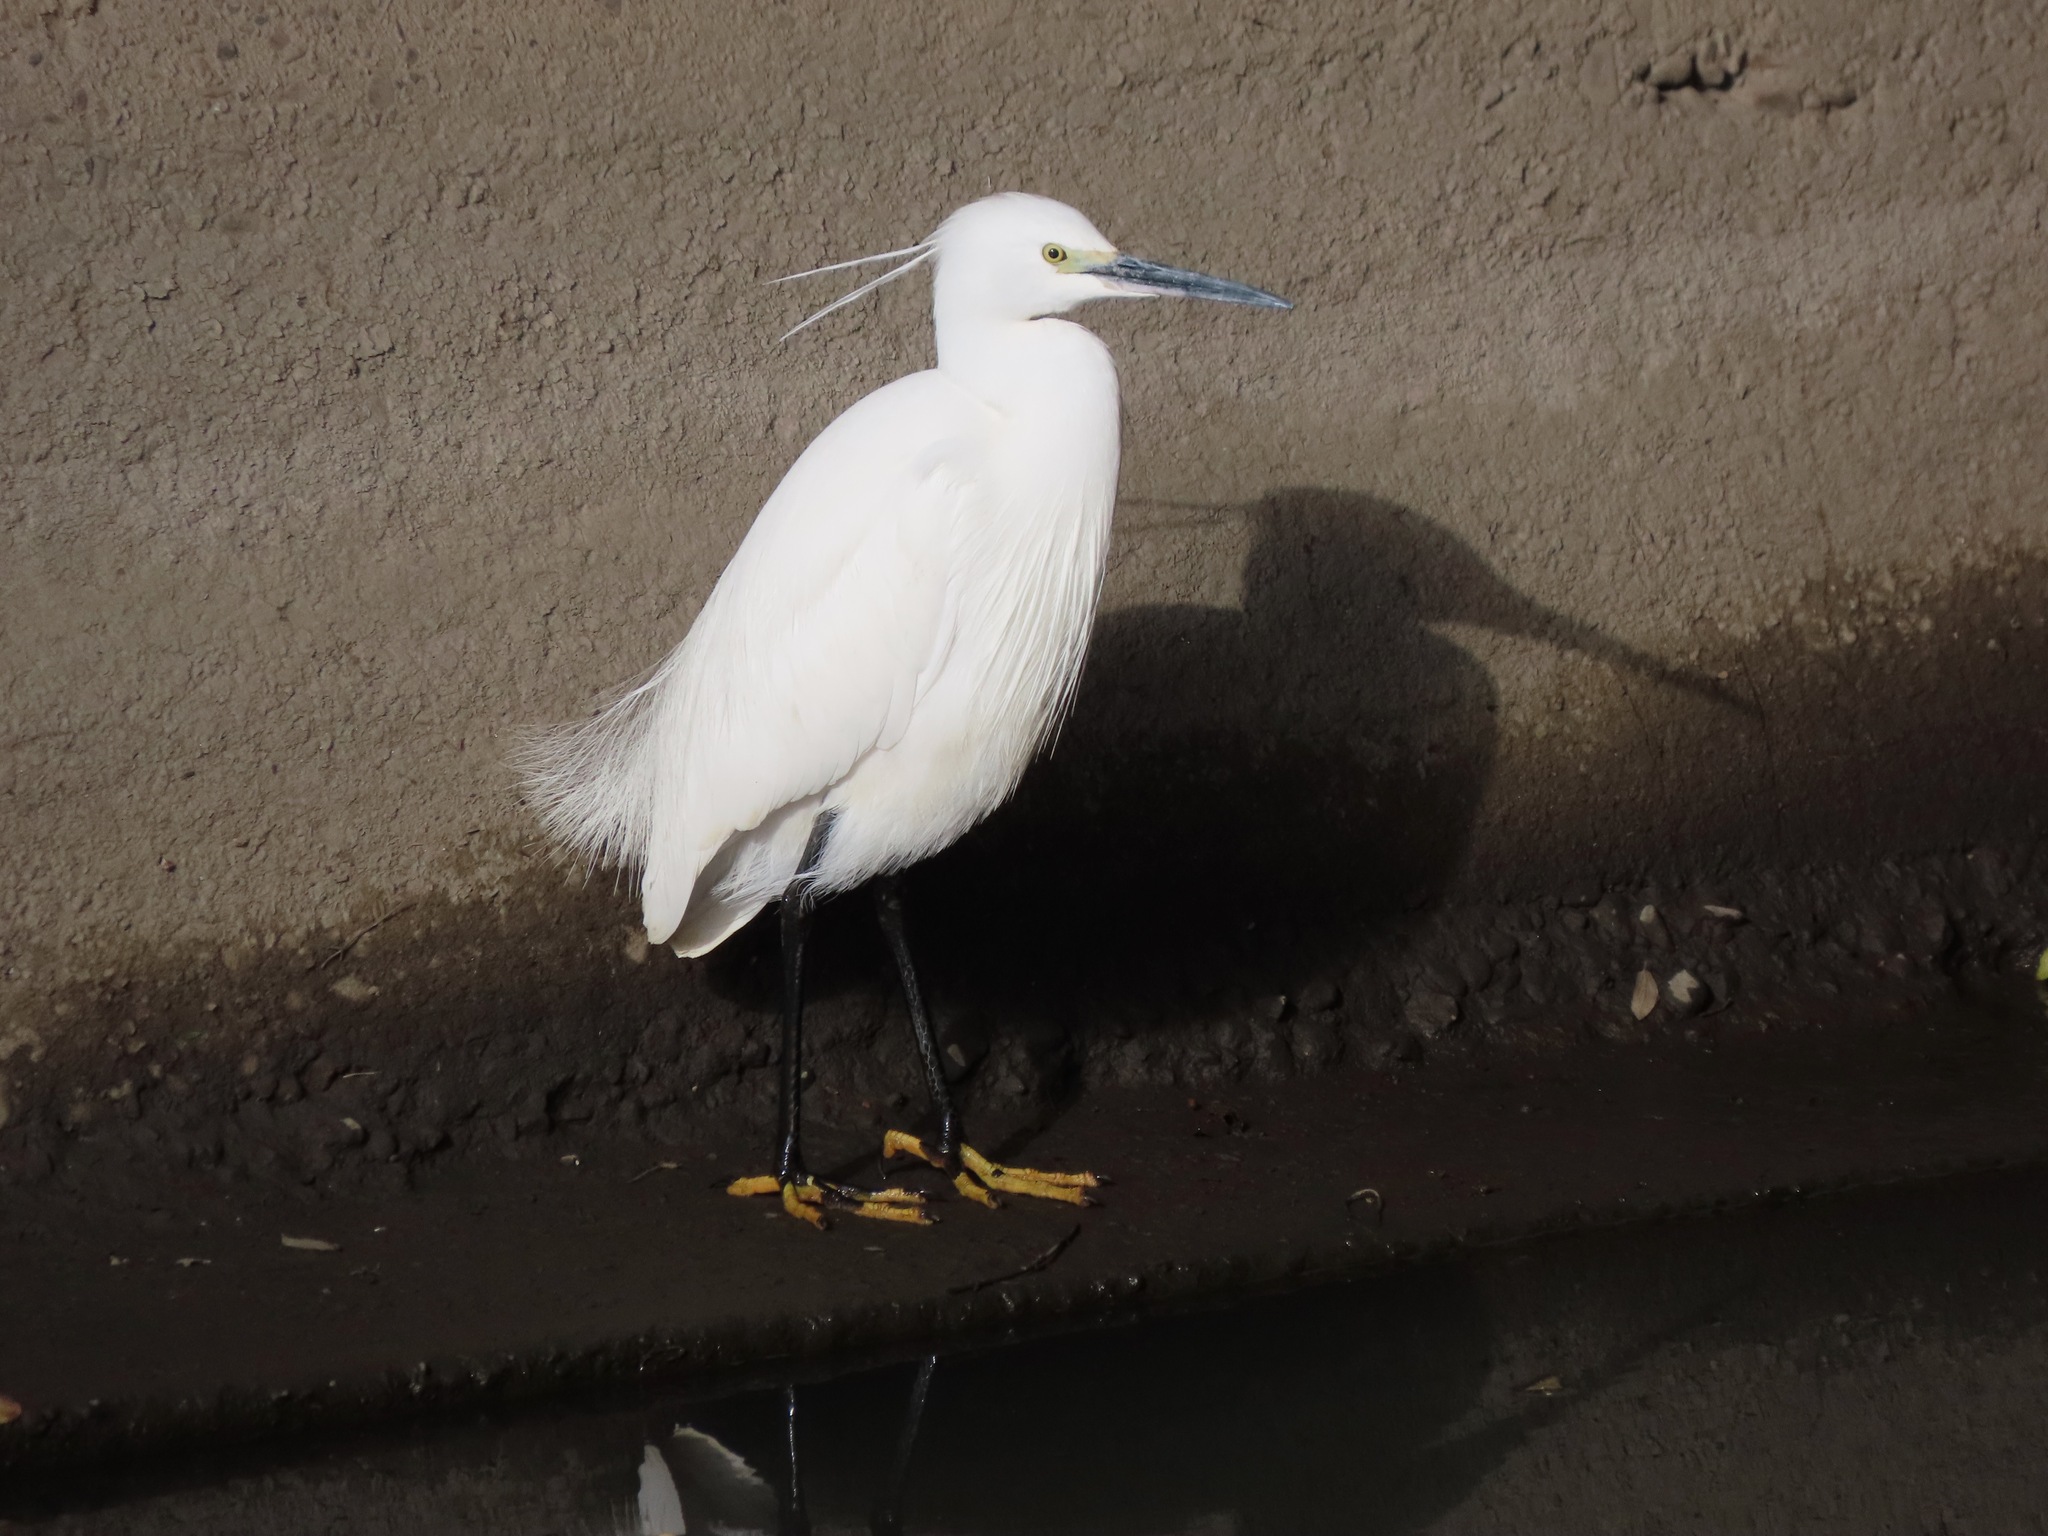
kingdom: Animalia
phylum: Chordata
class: Aves
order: Pelecaniformes
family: Ardeidae
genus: Egretta
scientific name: Egretta garzetta
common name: Little egret
